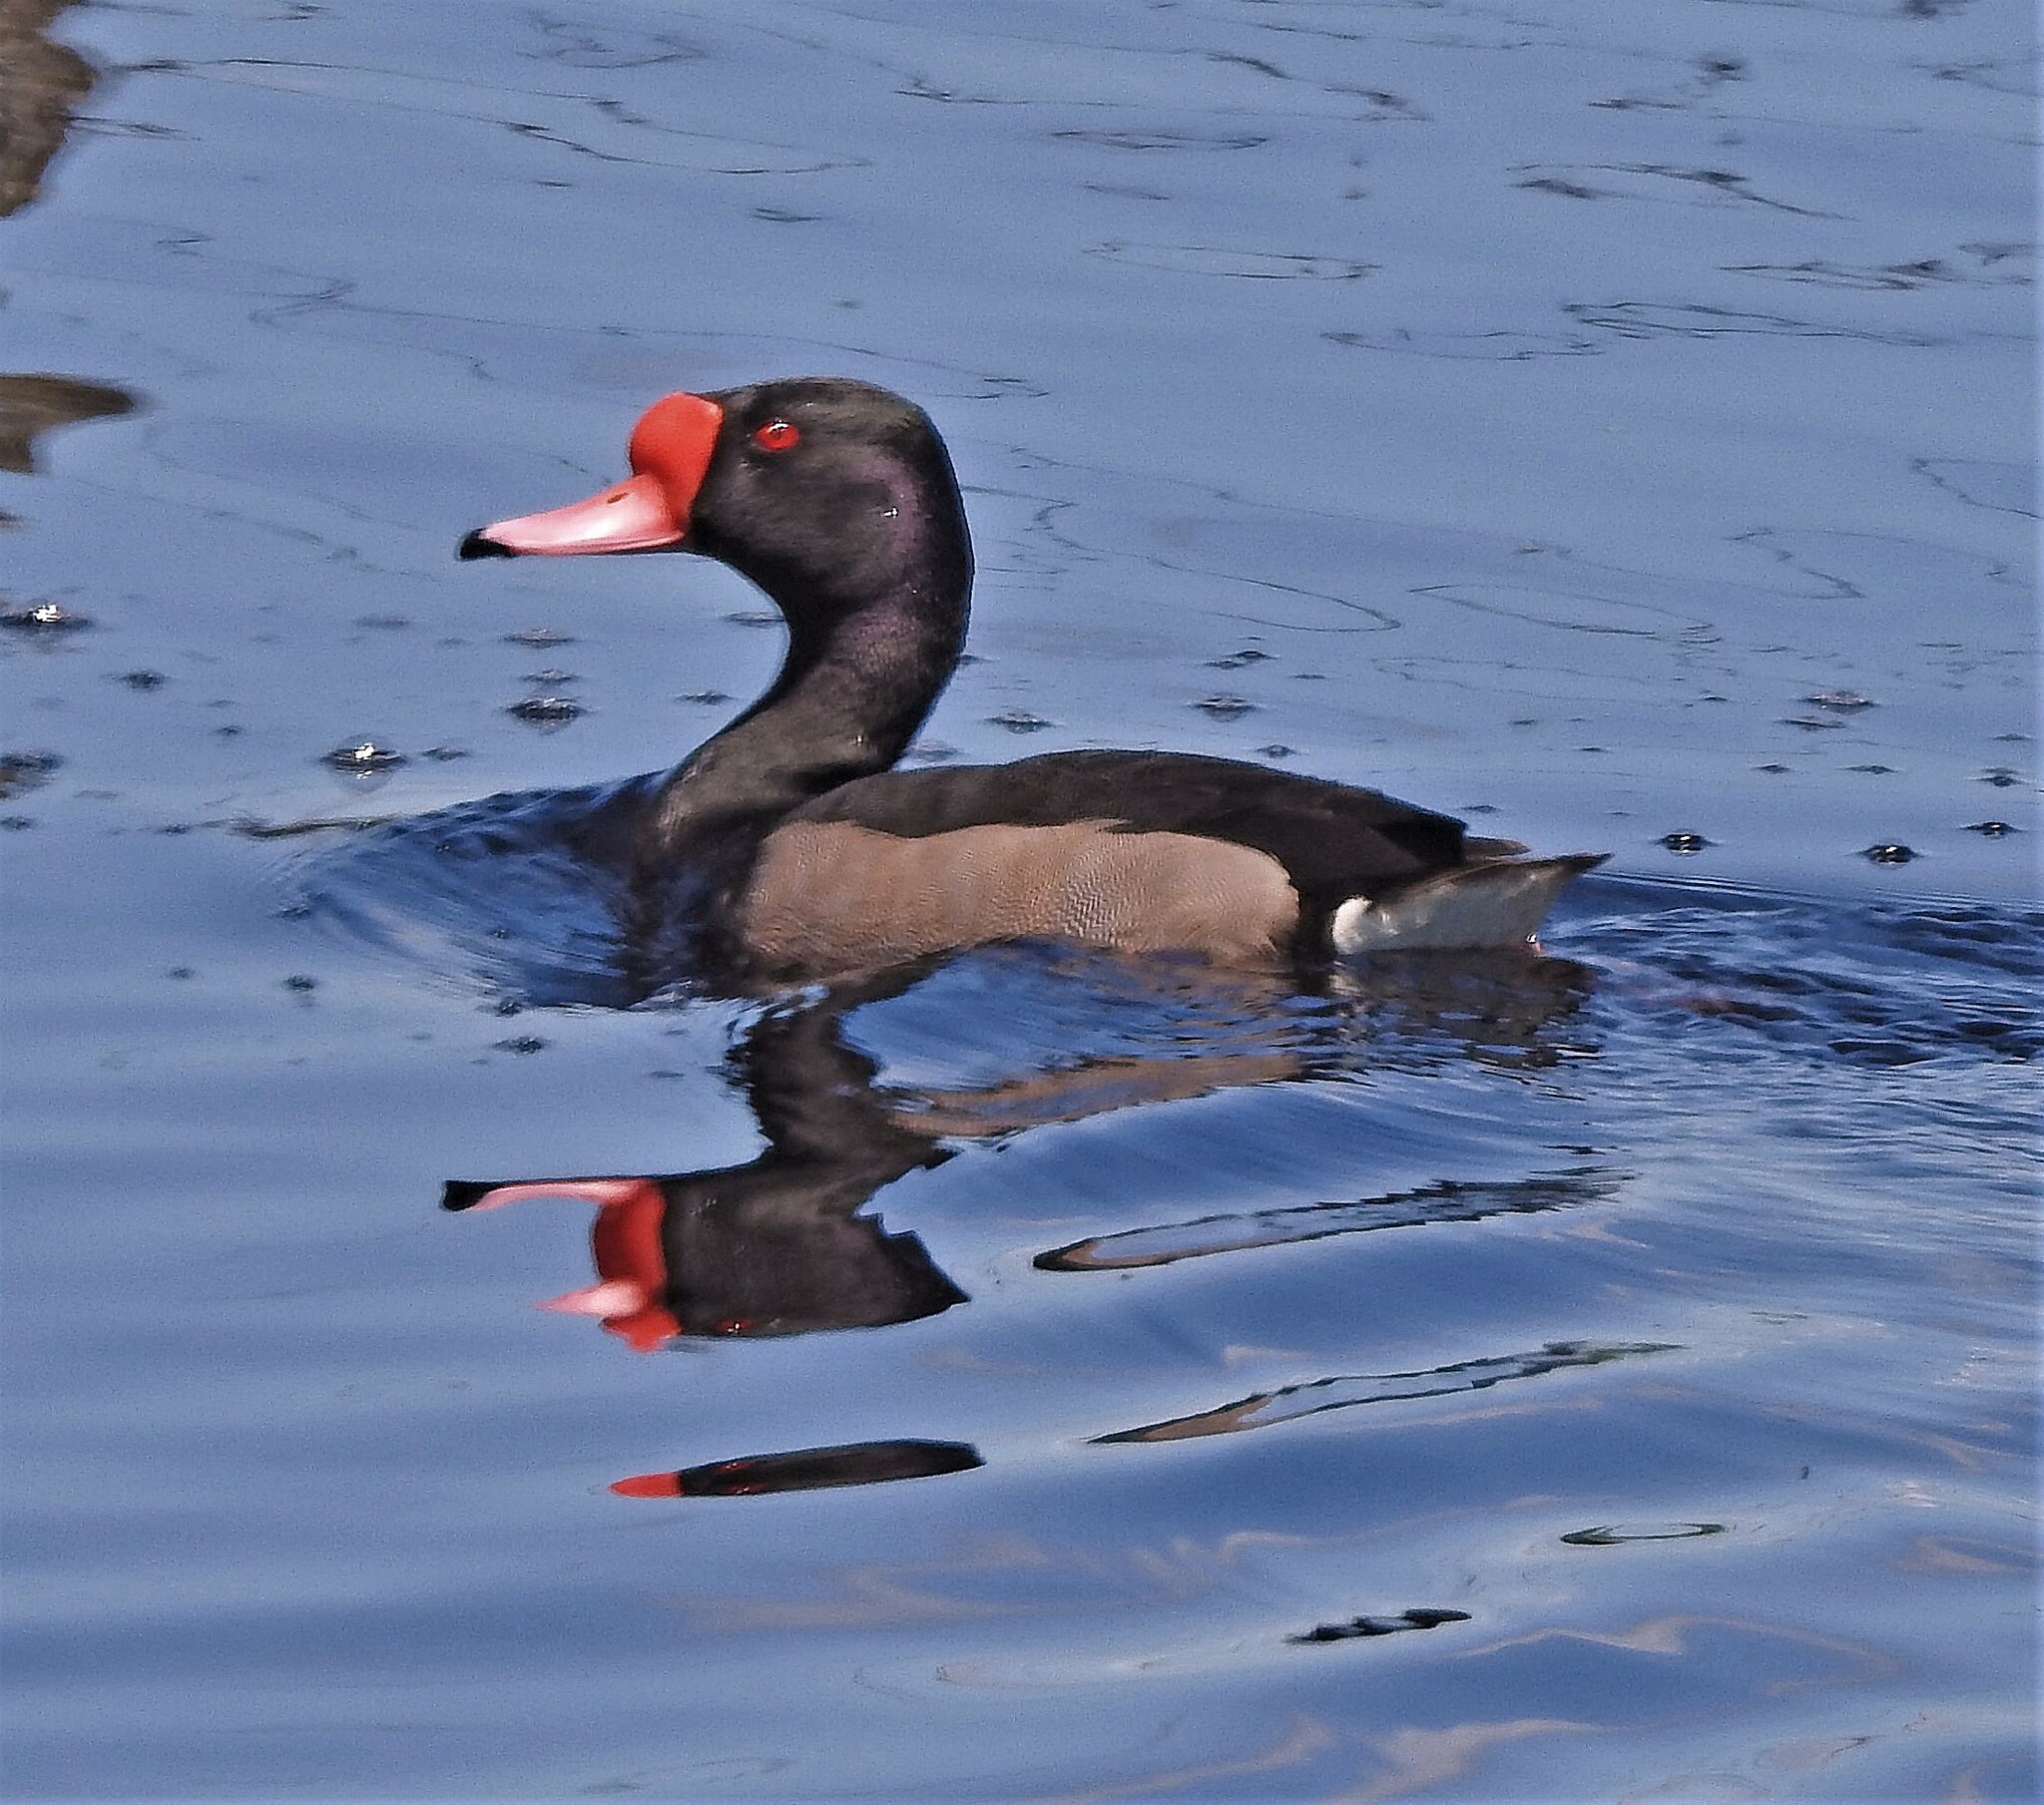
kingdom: Animalia
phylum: Chordata
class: Aves
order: Anseriformes
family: Anatidae
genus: Netta
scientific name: Netta peposaca
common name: Rosy-billed pochard
